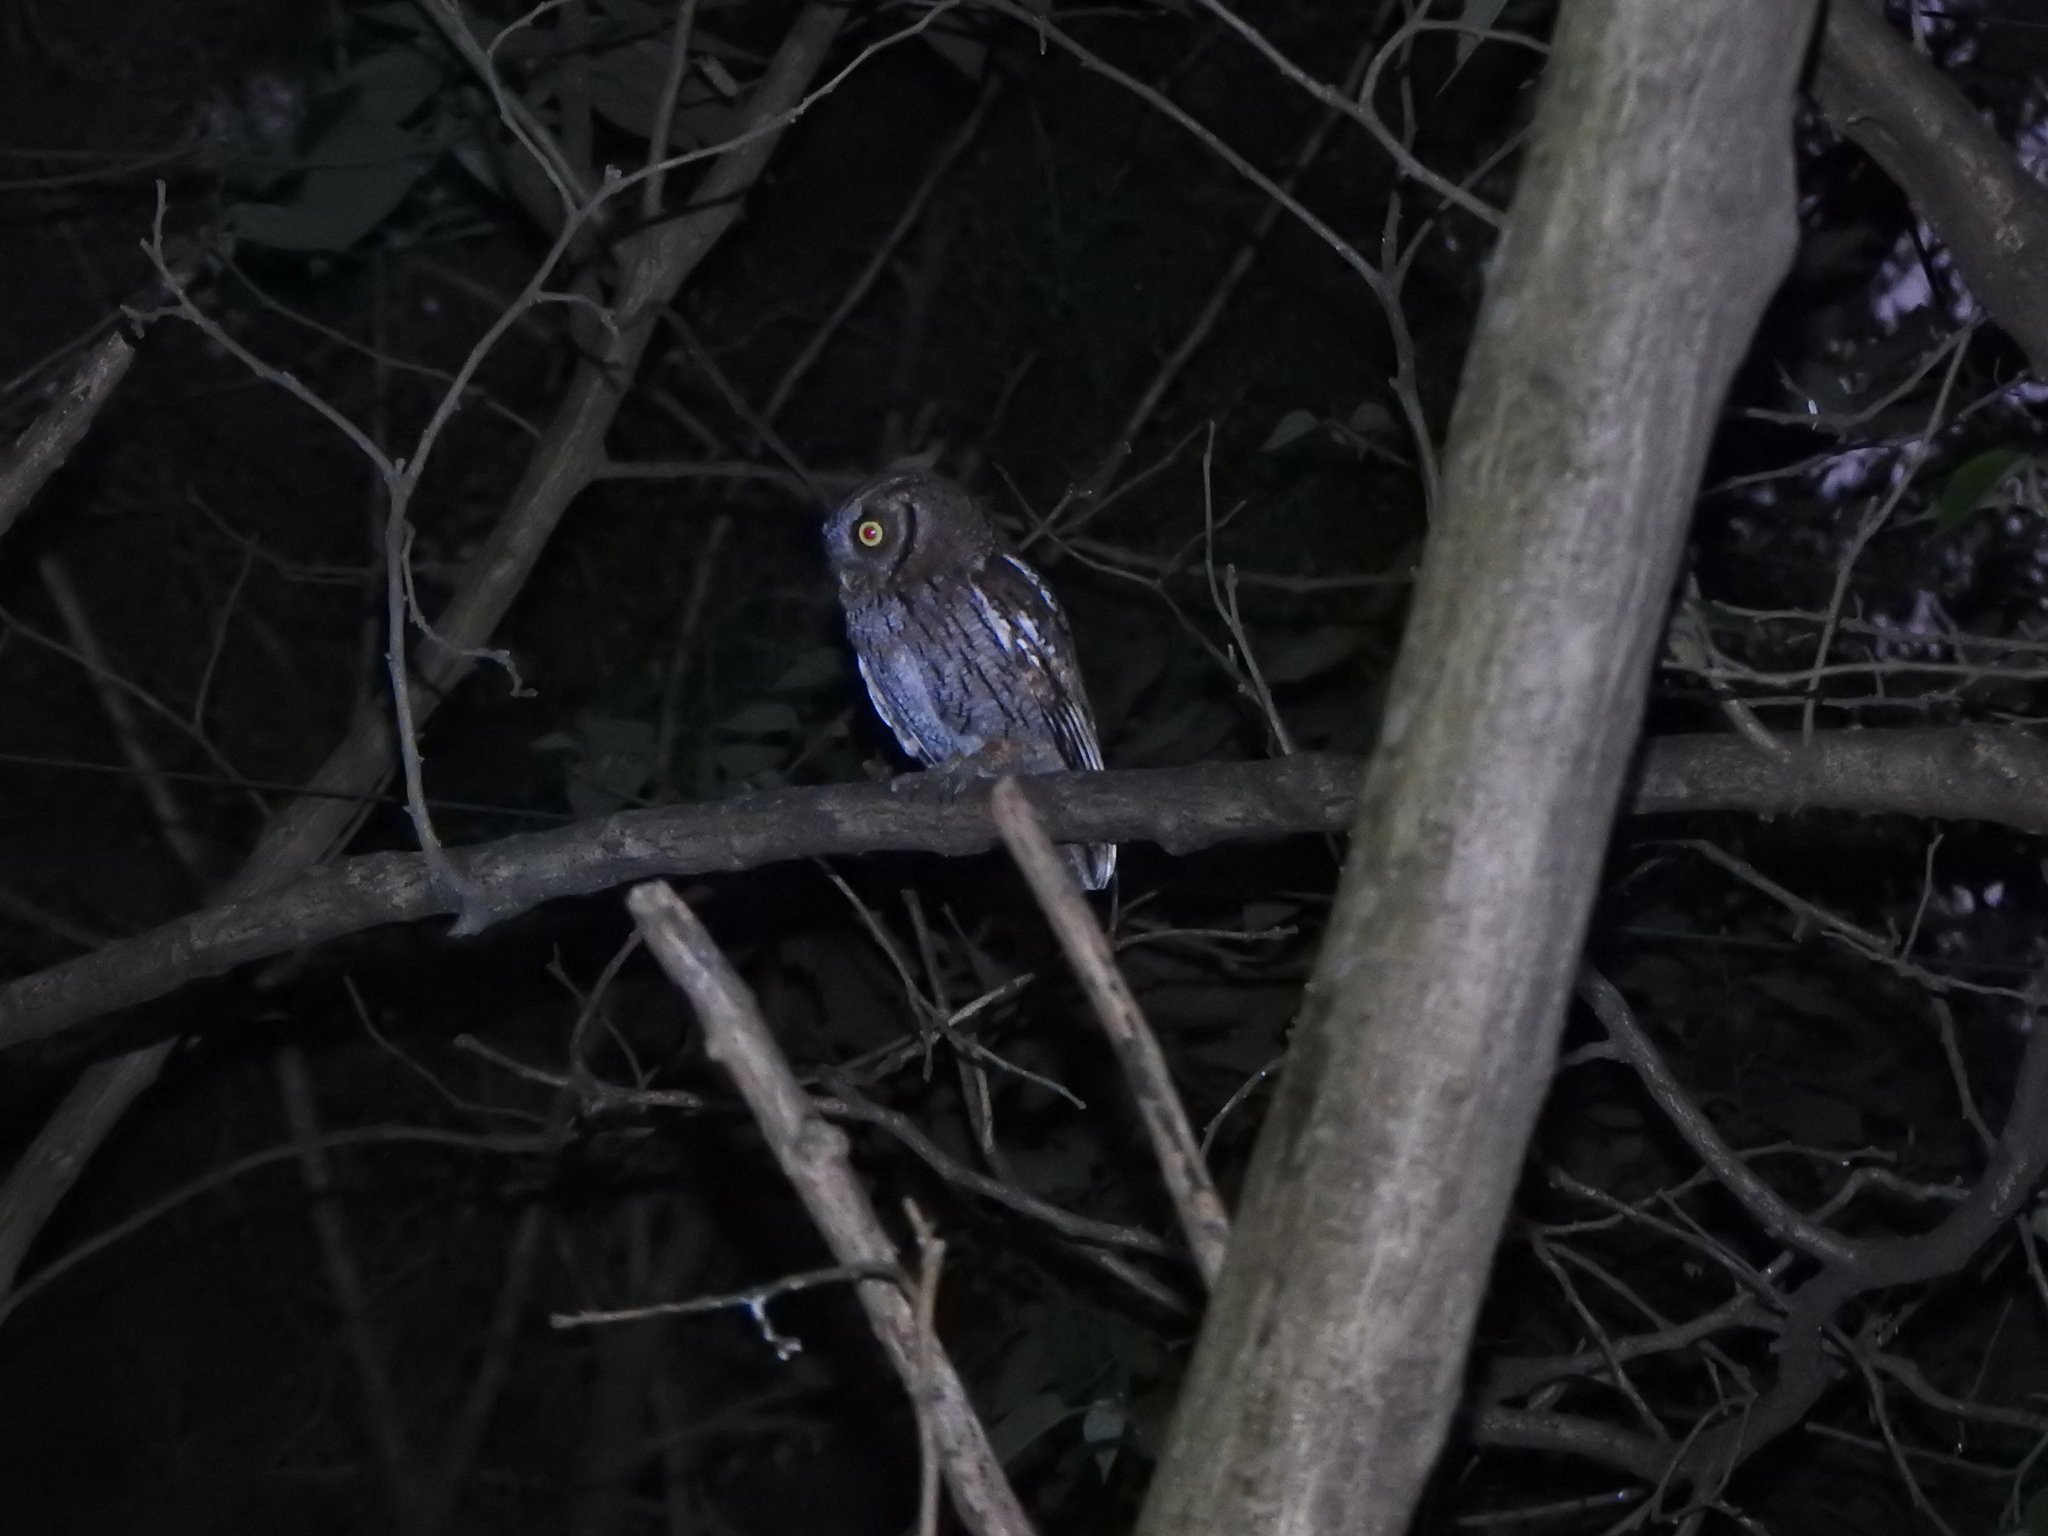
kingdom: Animalia
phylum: Chordata
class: Aves
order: Strigiformes
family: Strigidae
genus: Megascops
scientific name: Megascops choliba
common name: Tropical screech-owl
